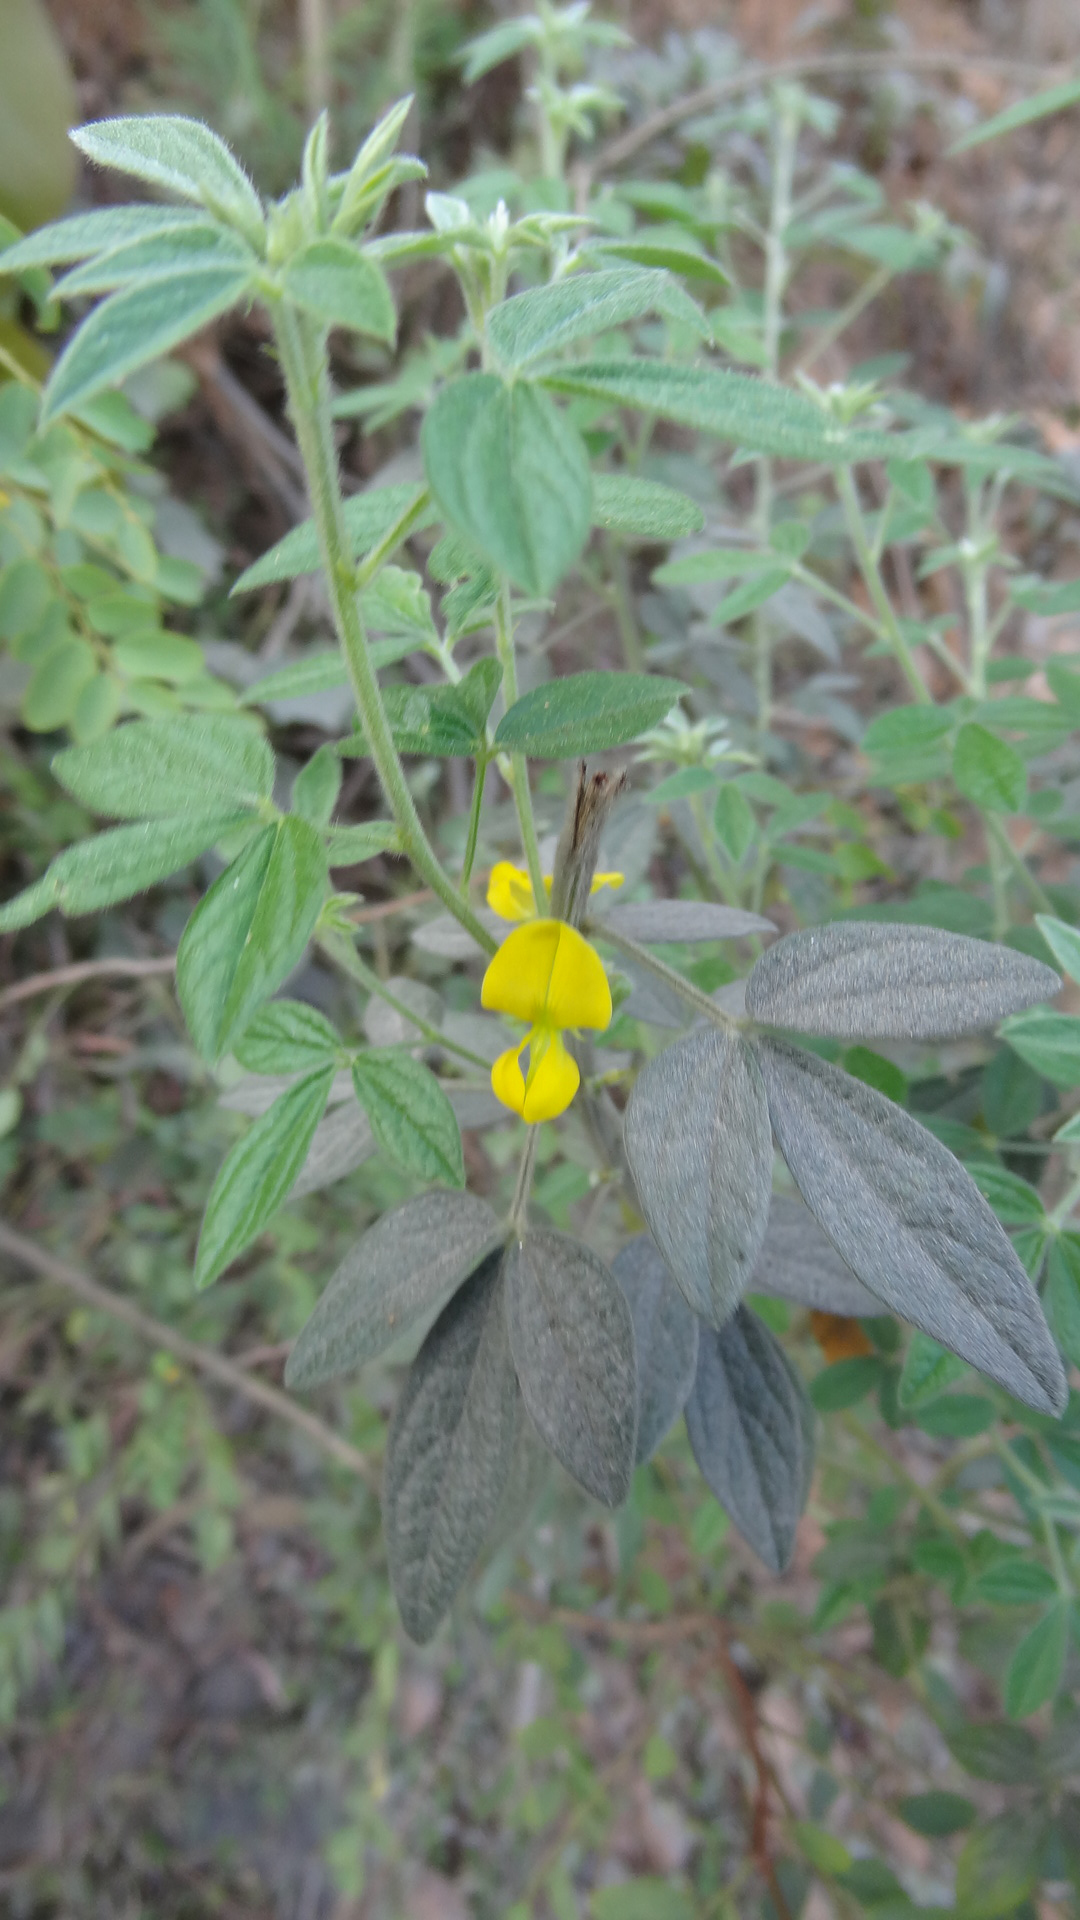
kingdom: Plantae
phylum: Tracheophyta
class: Magnoliopsida
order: Fabales
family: Fabaceae
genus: Cajanus
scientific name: Cajanus lineatus
